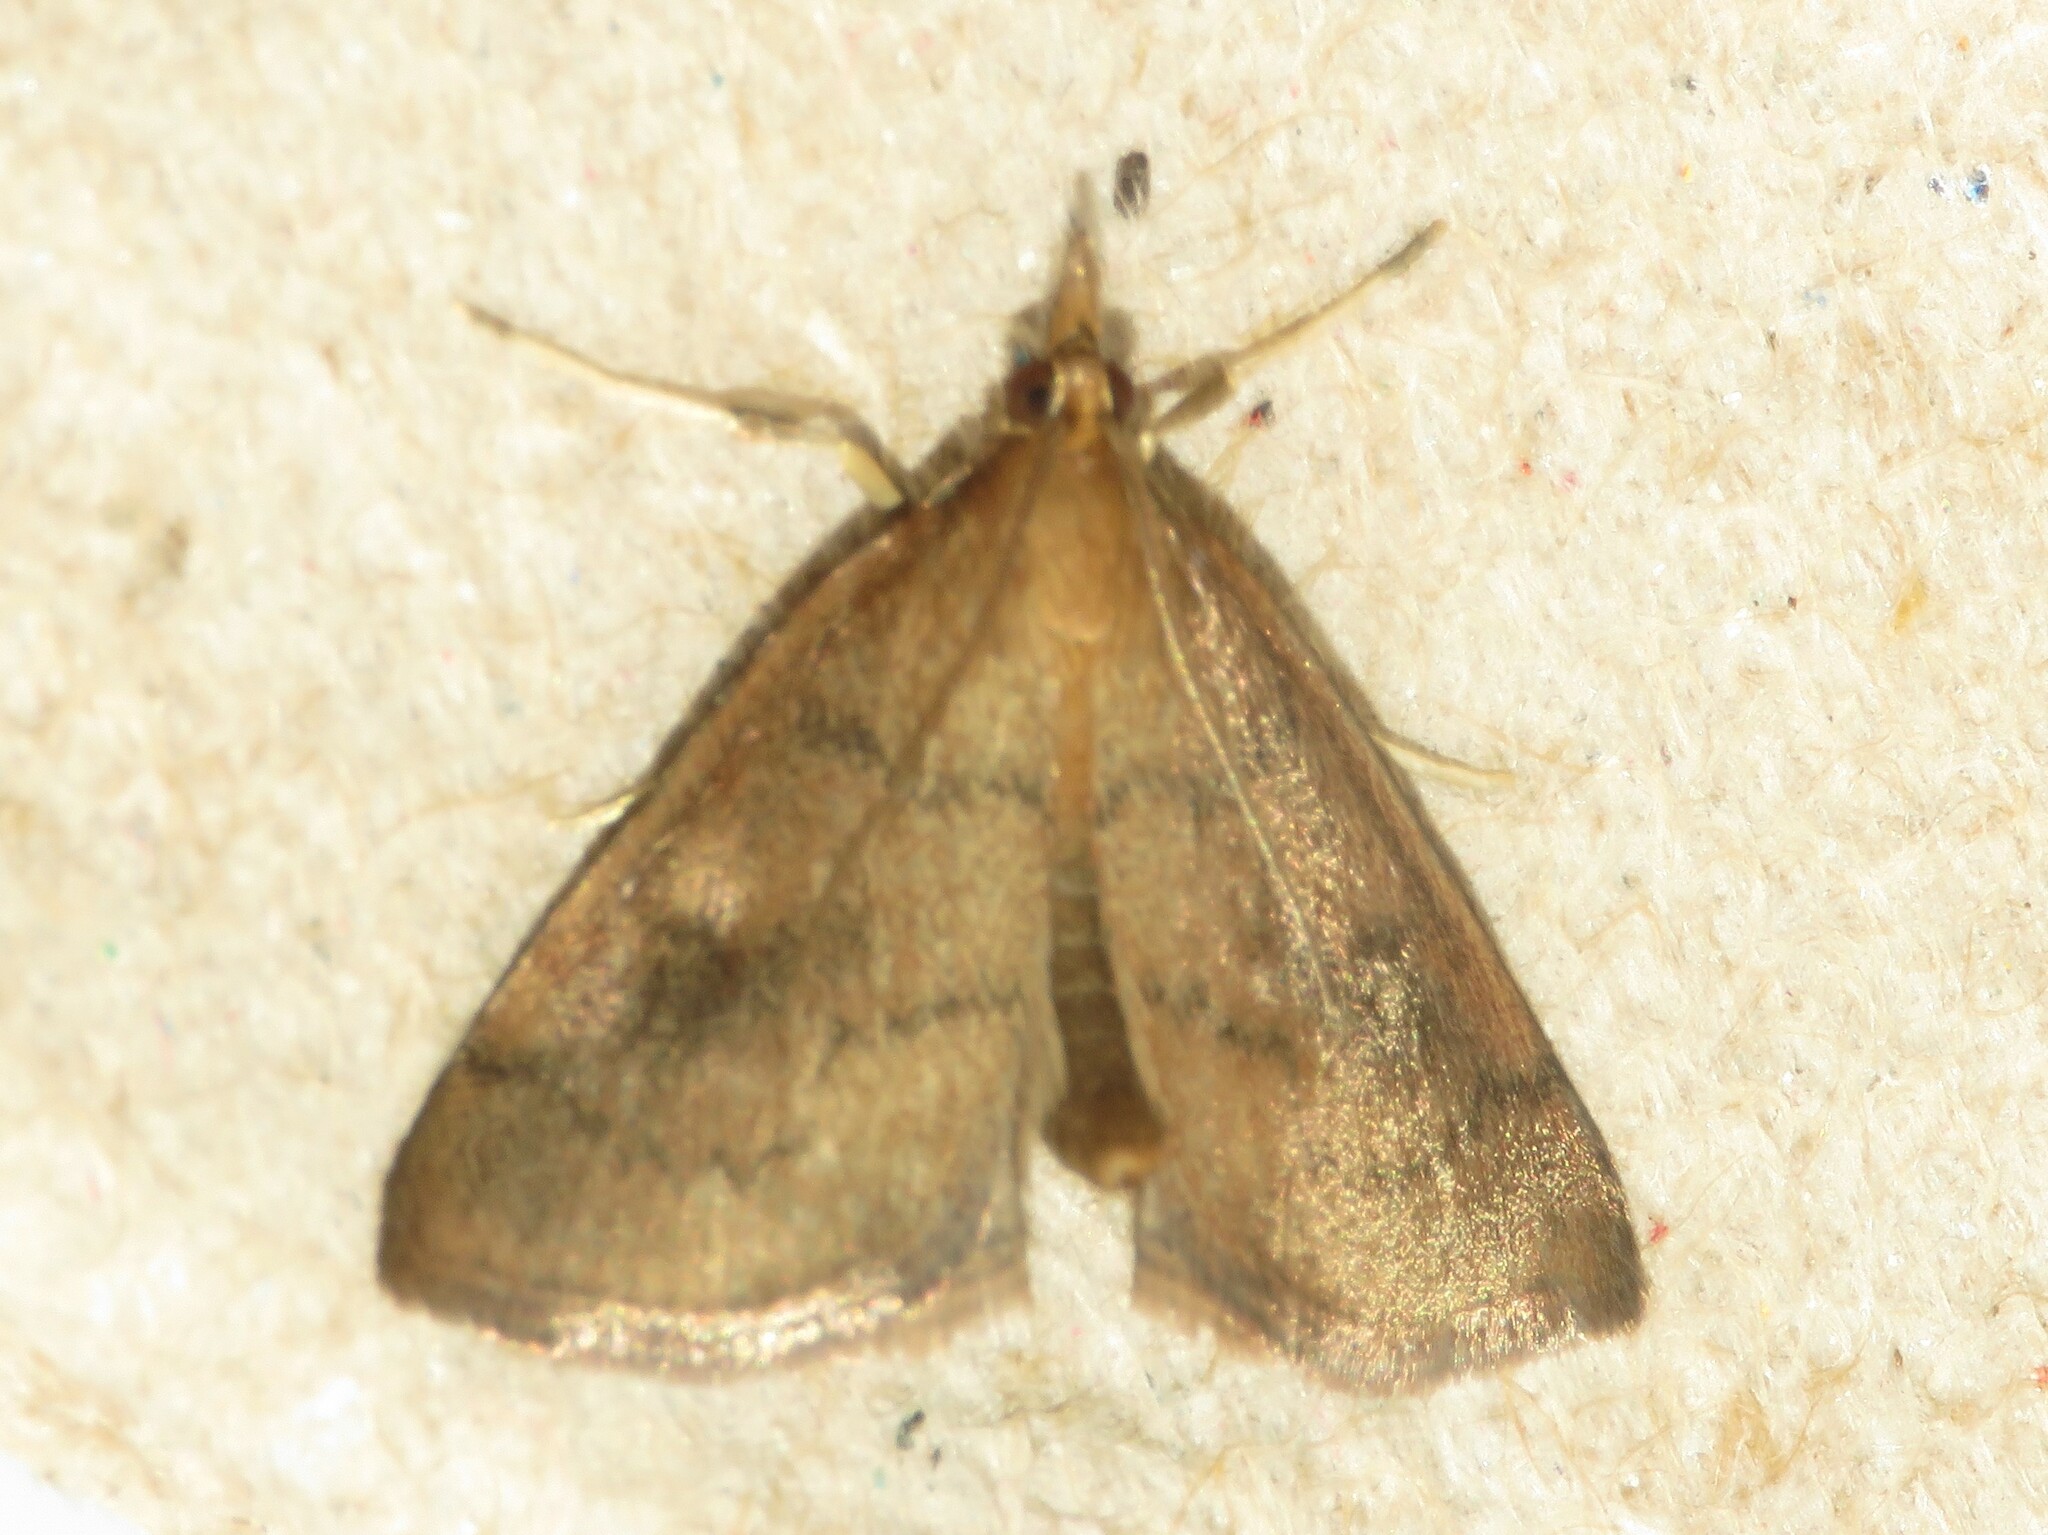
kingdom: Animalia
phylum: Arthropoda
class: Insecta
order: Lepidoptera
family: Crambidae
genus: Fumibotys
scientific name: Fumibotys fumalis
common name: Mint root borer moth
